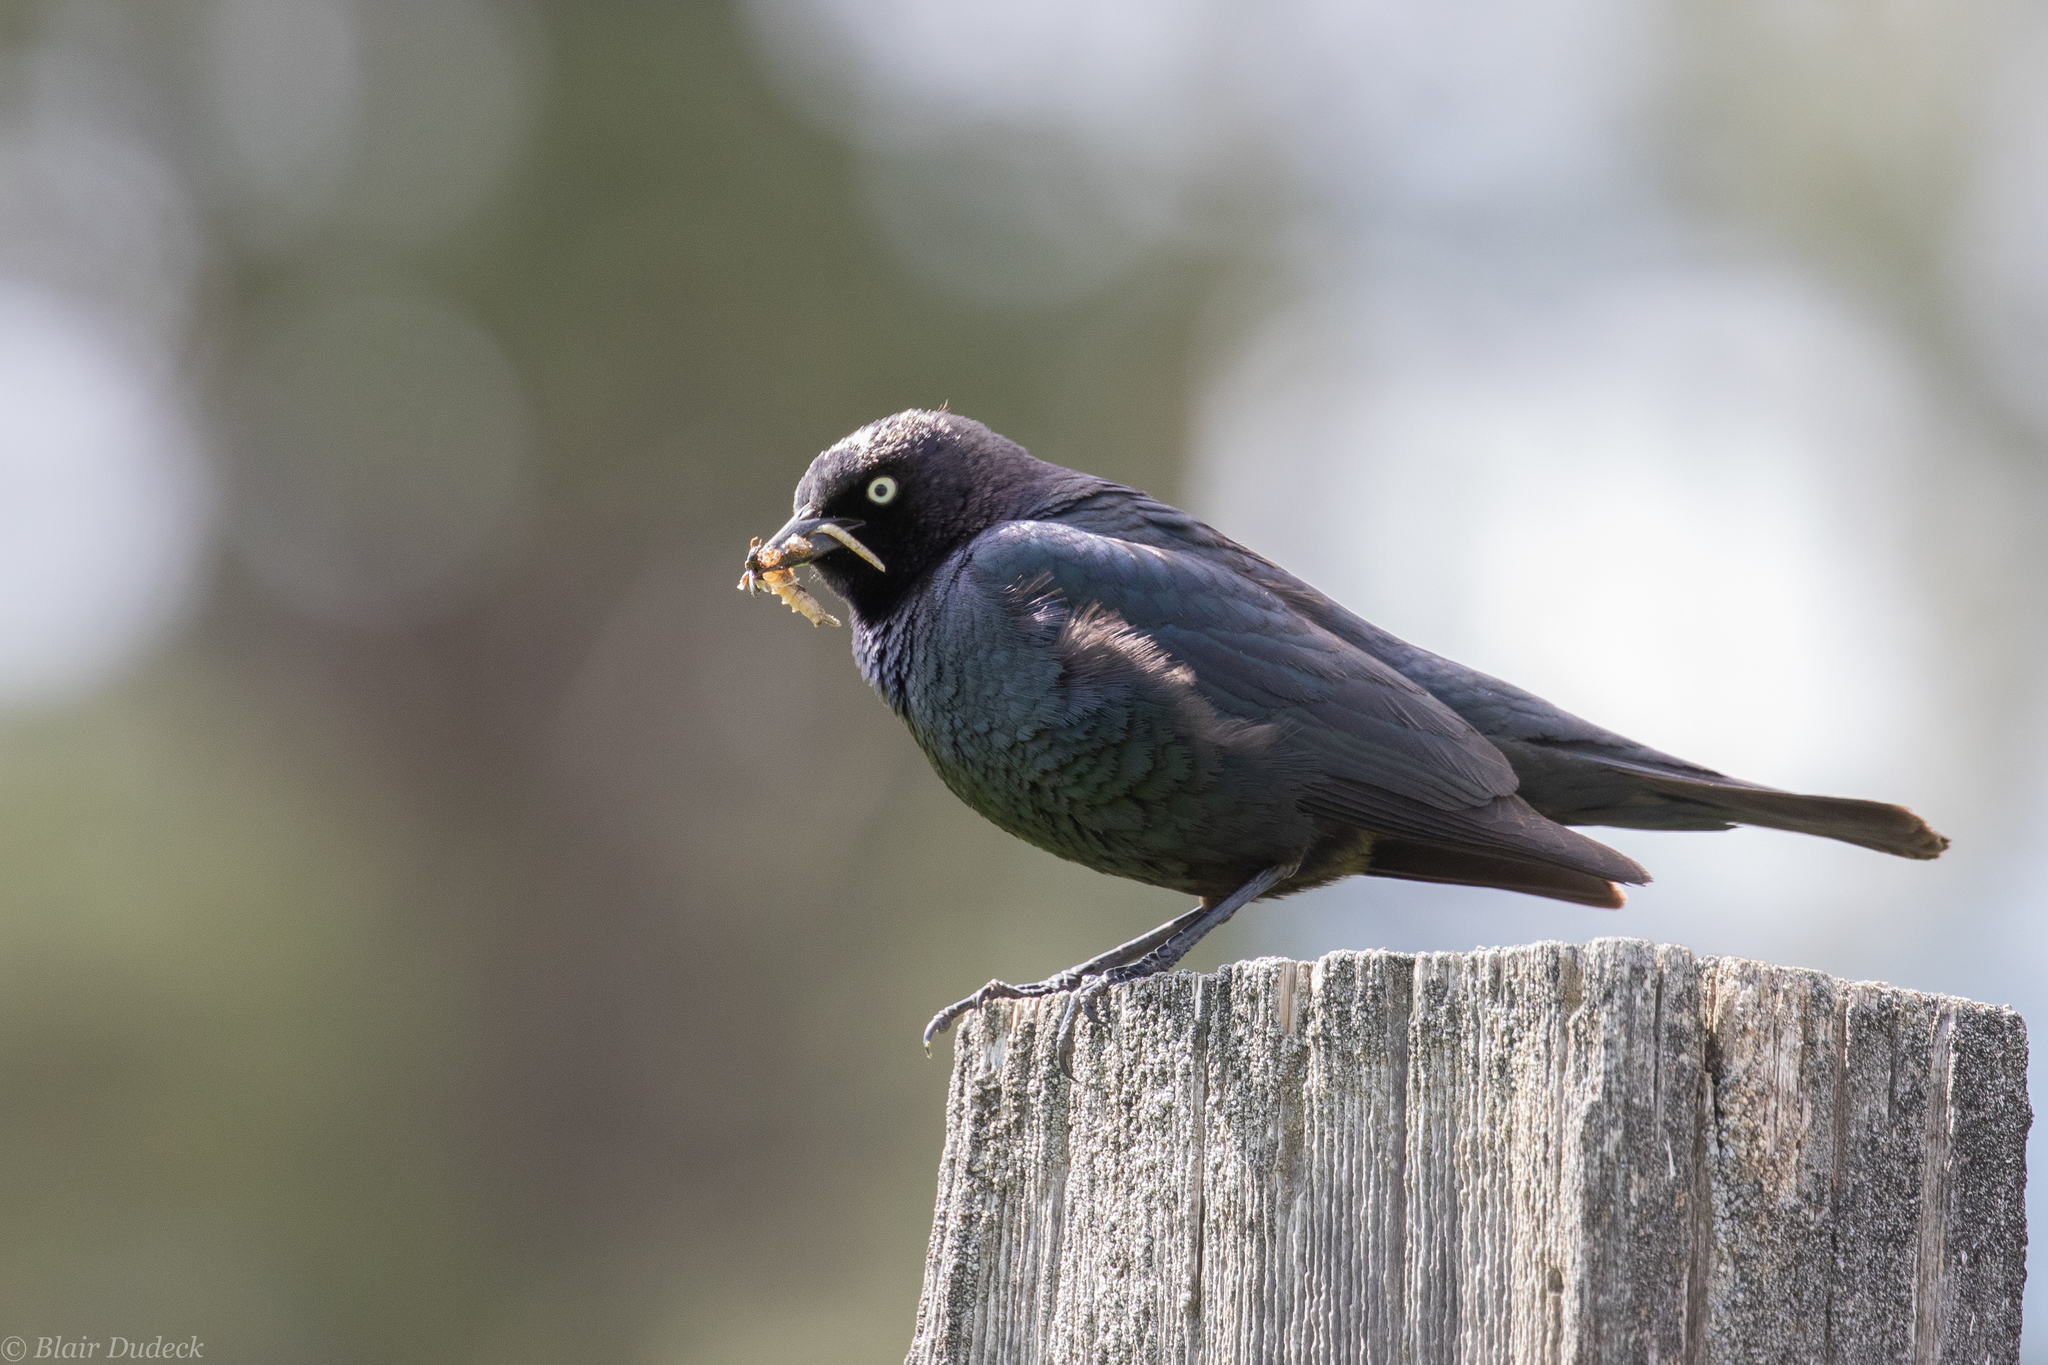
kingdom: Animalia
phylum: Chordata
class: Aves
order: Passeriformes
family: Icteridae
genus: Euphagus
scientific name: Euphagus cyanocephalus
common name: Brewer's blackbird
